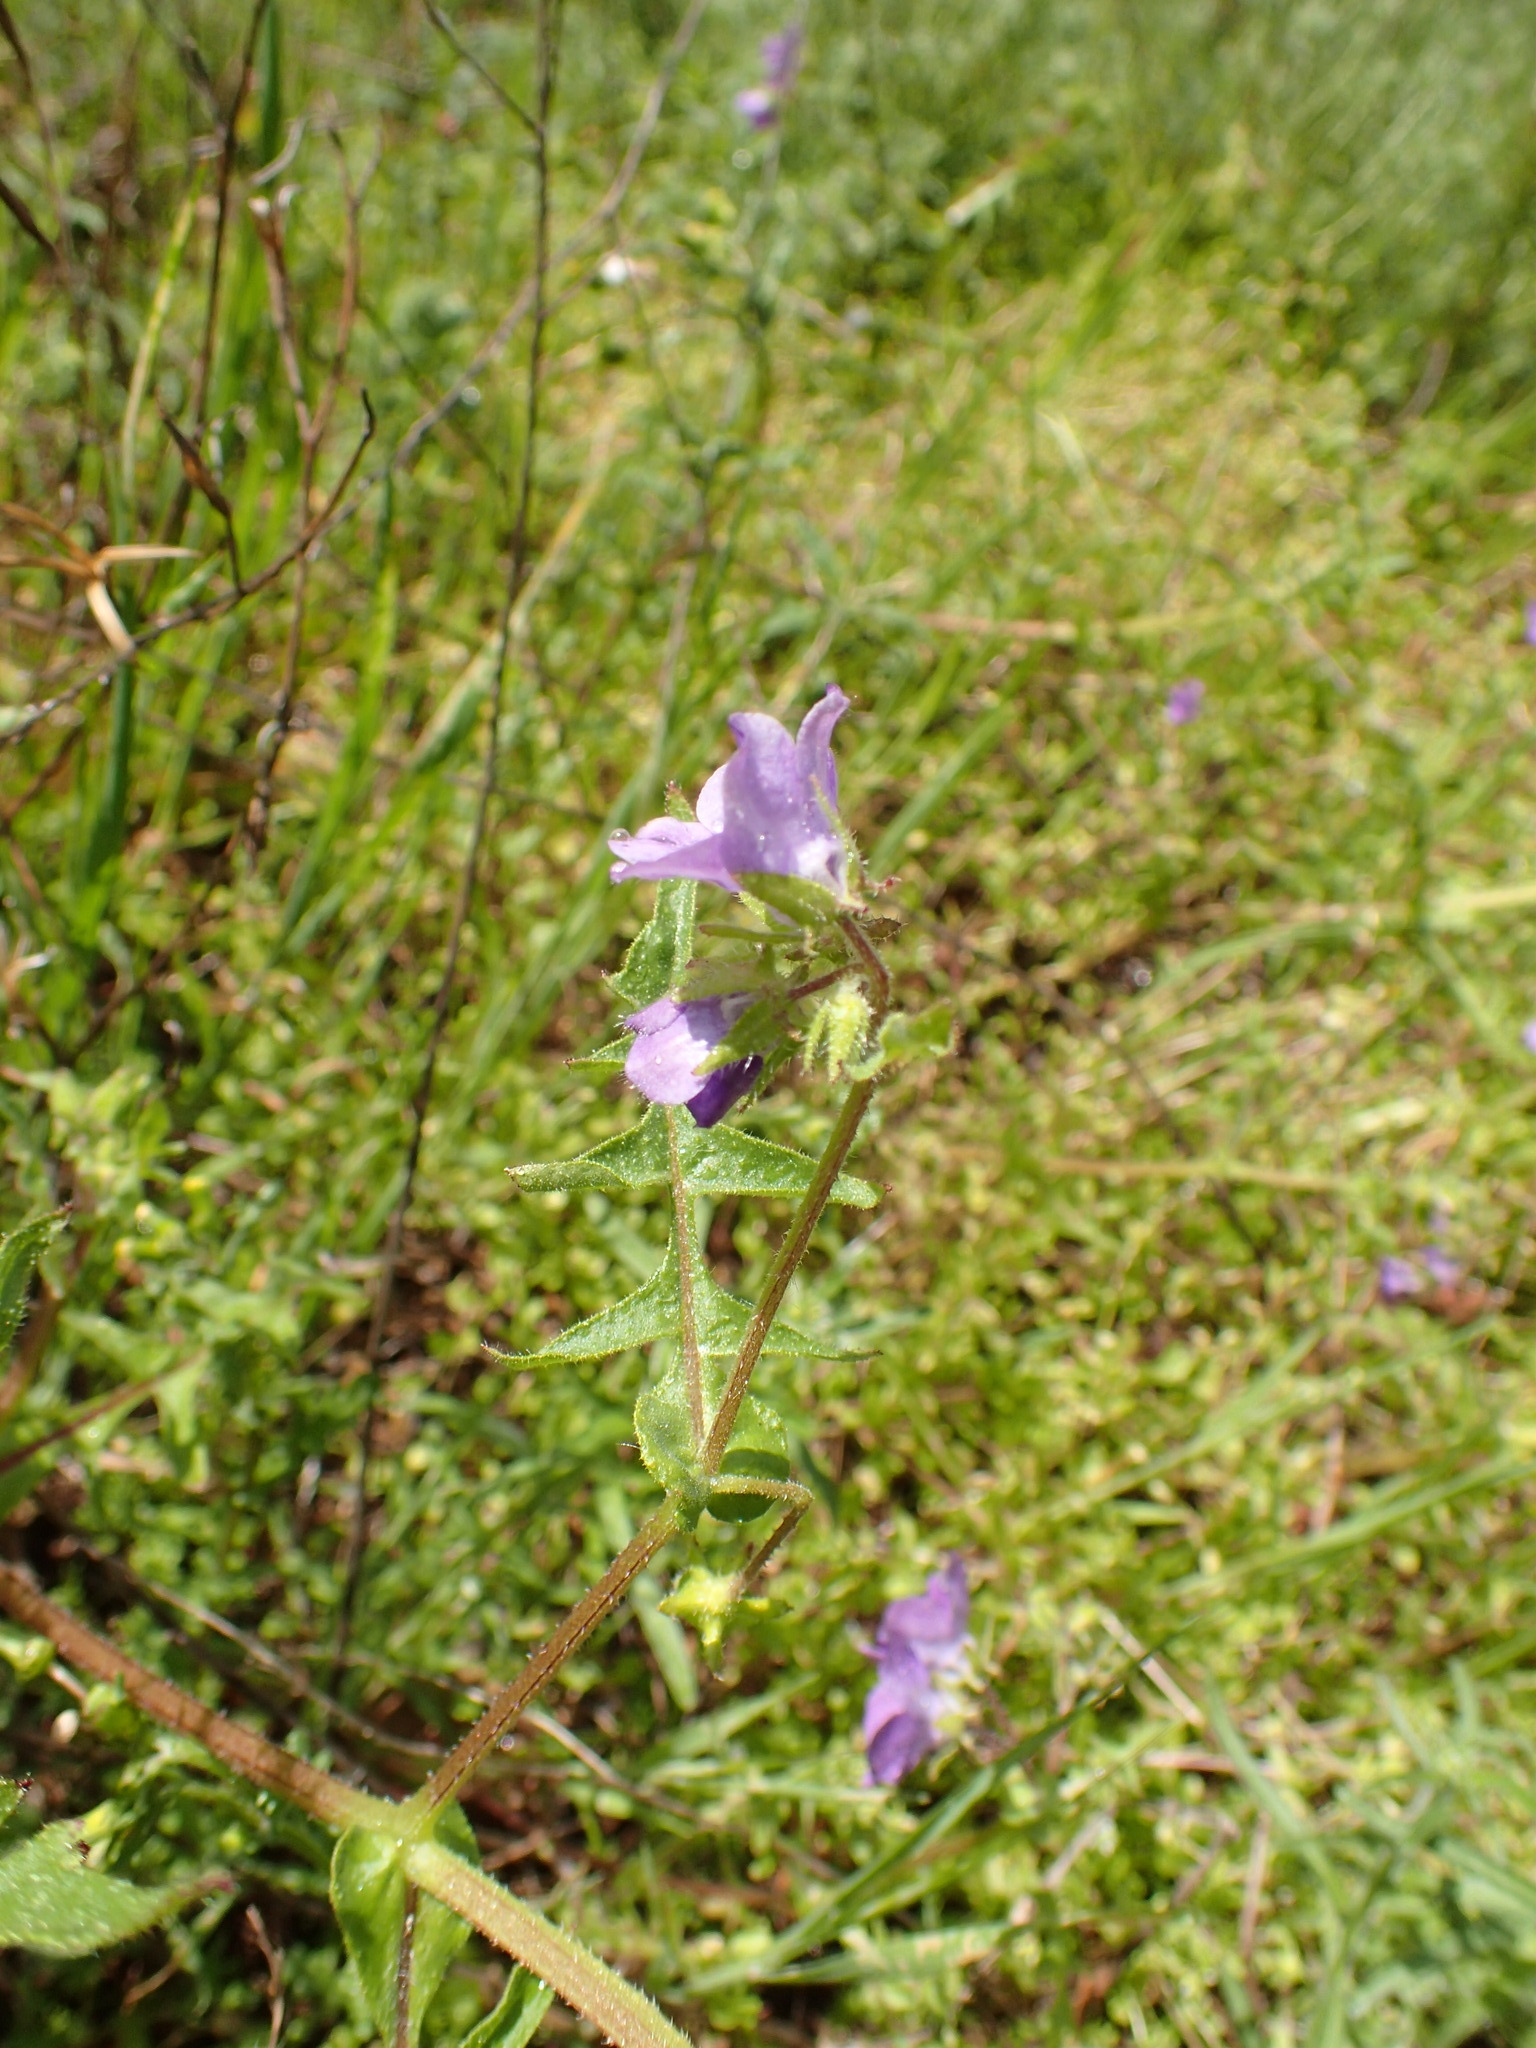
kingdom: Plantae
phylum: Tracheophyta
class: Magnoliopsida
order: Boraginales
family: Hydrophyllaceae
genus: Pholistoma
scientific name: Pholistoma auritum
